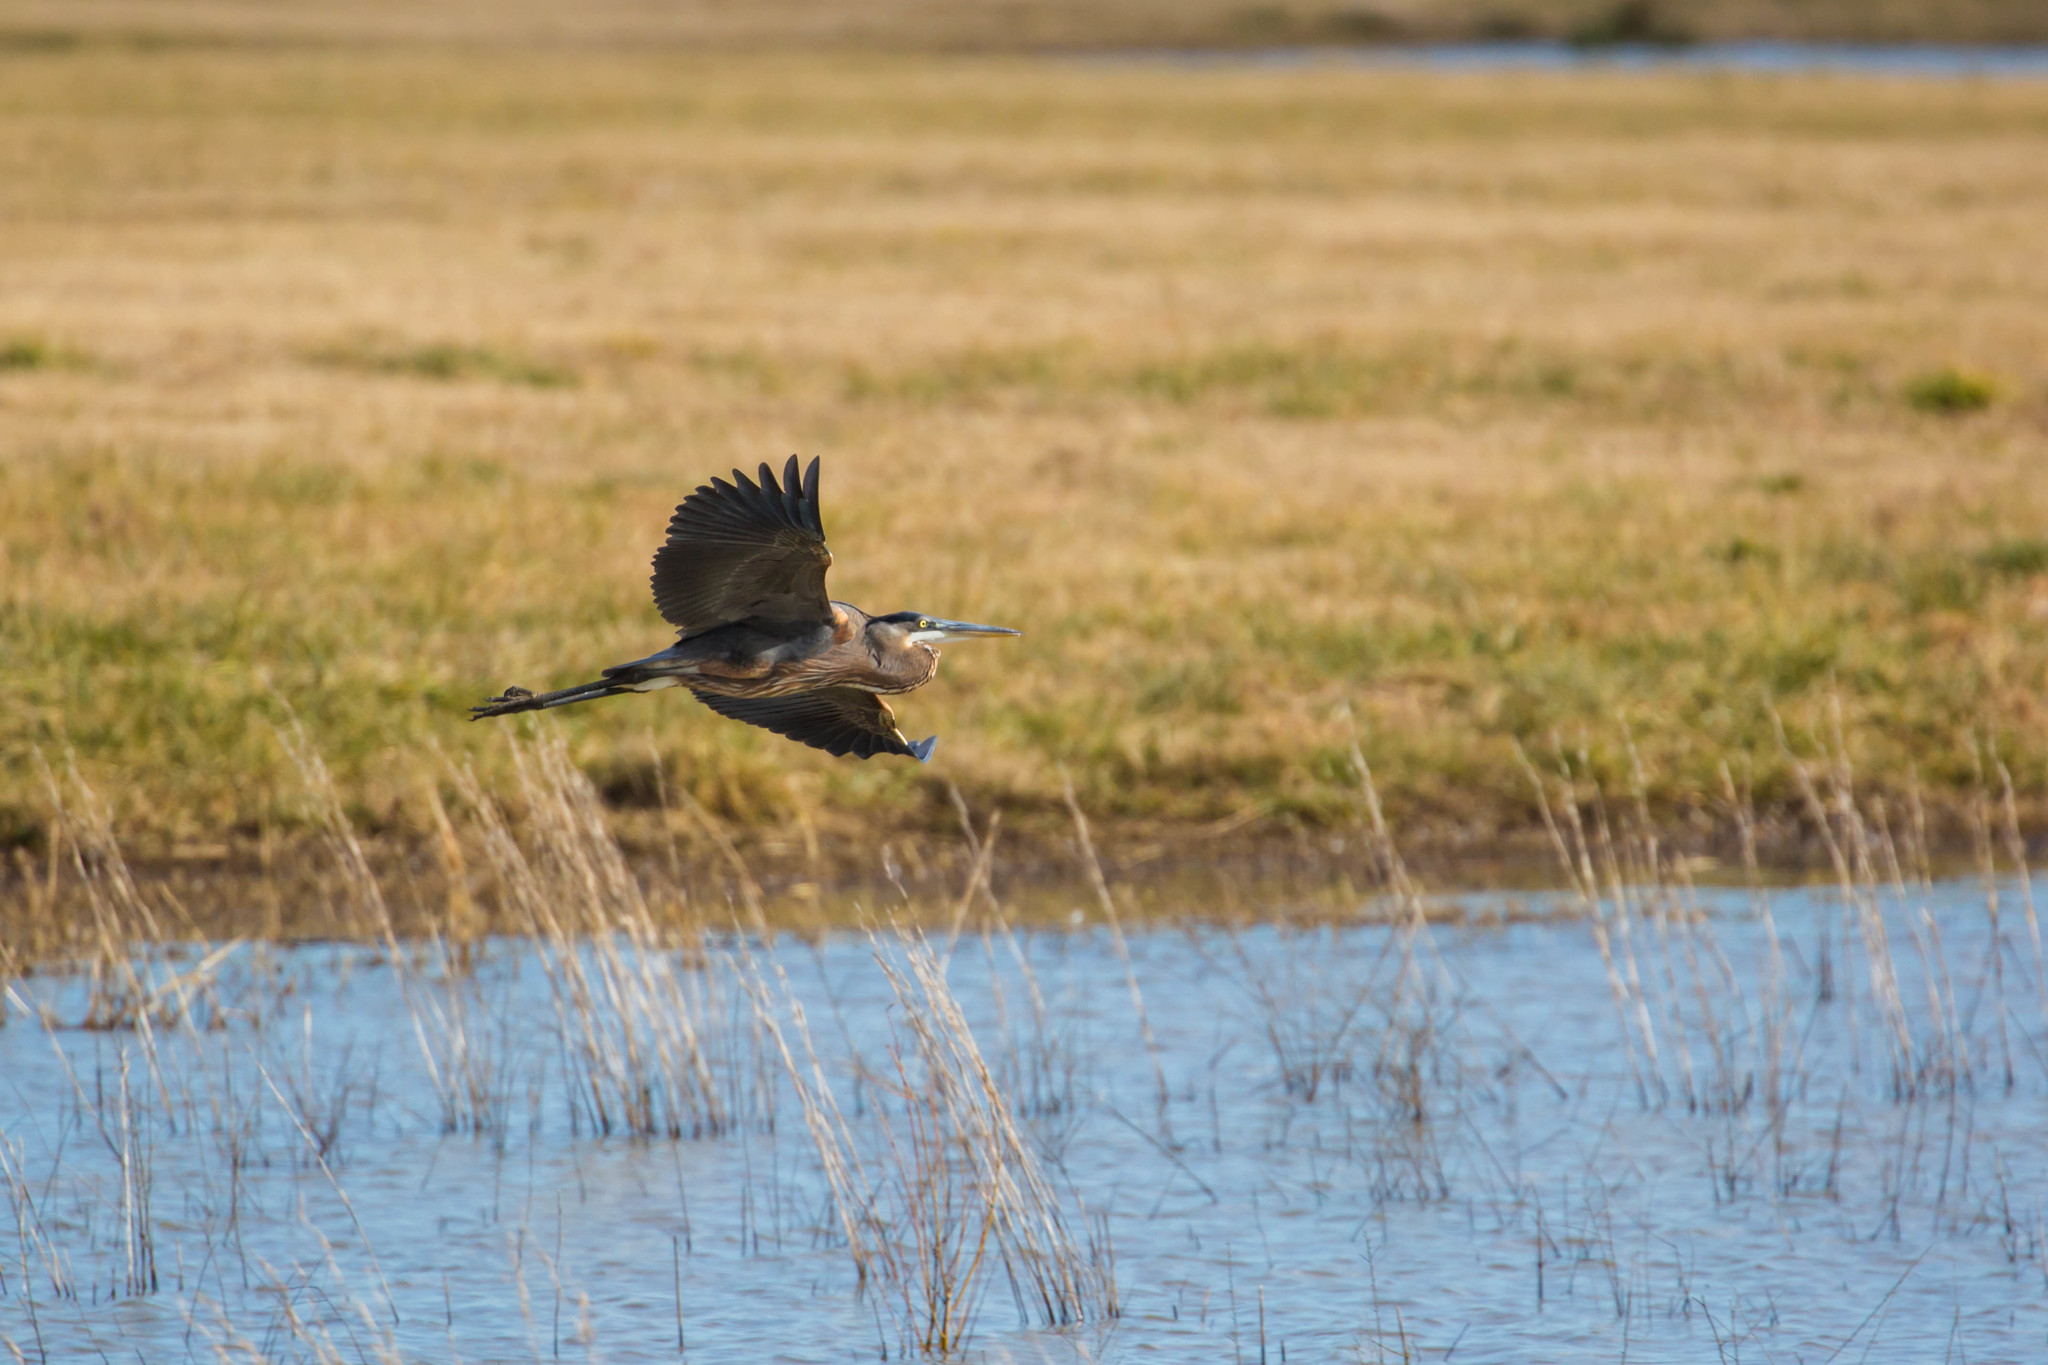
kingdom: Animalia
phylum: Chordata
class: Aves
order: Pelecaniformes
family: Ardeidae
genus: Ardea
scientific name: Ardea herodias
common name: Great blue heron
